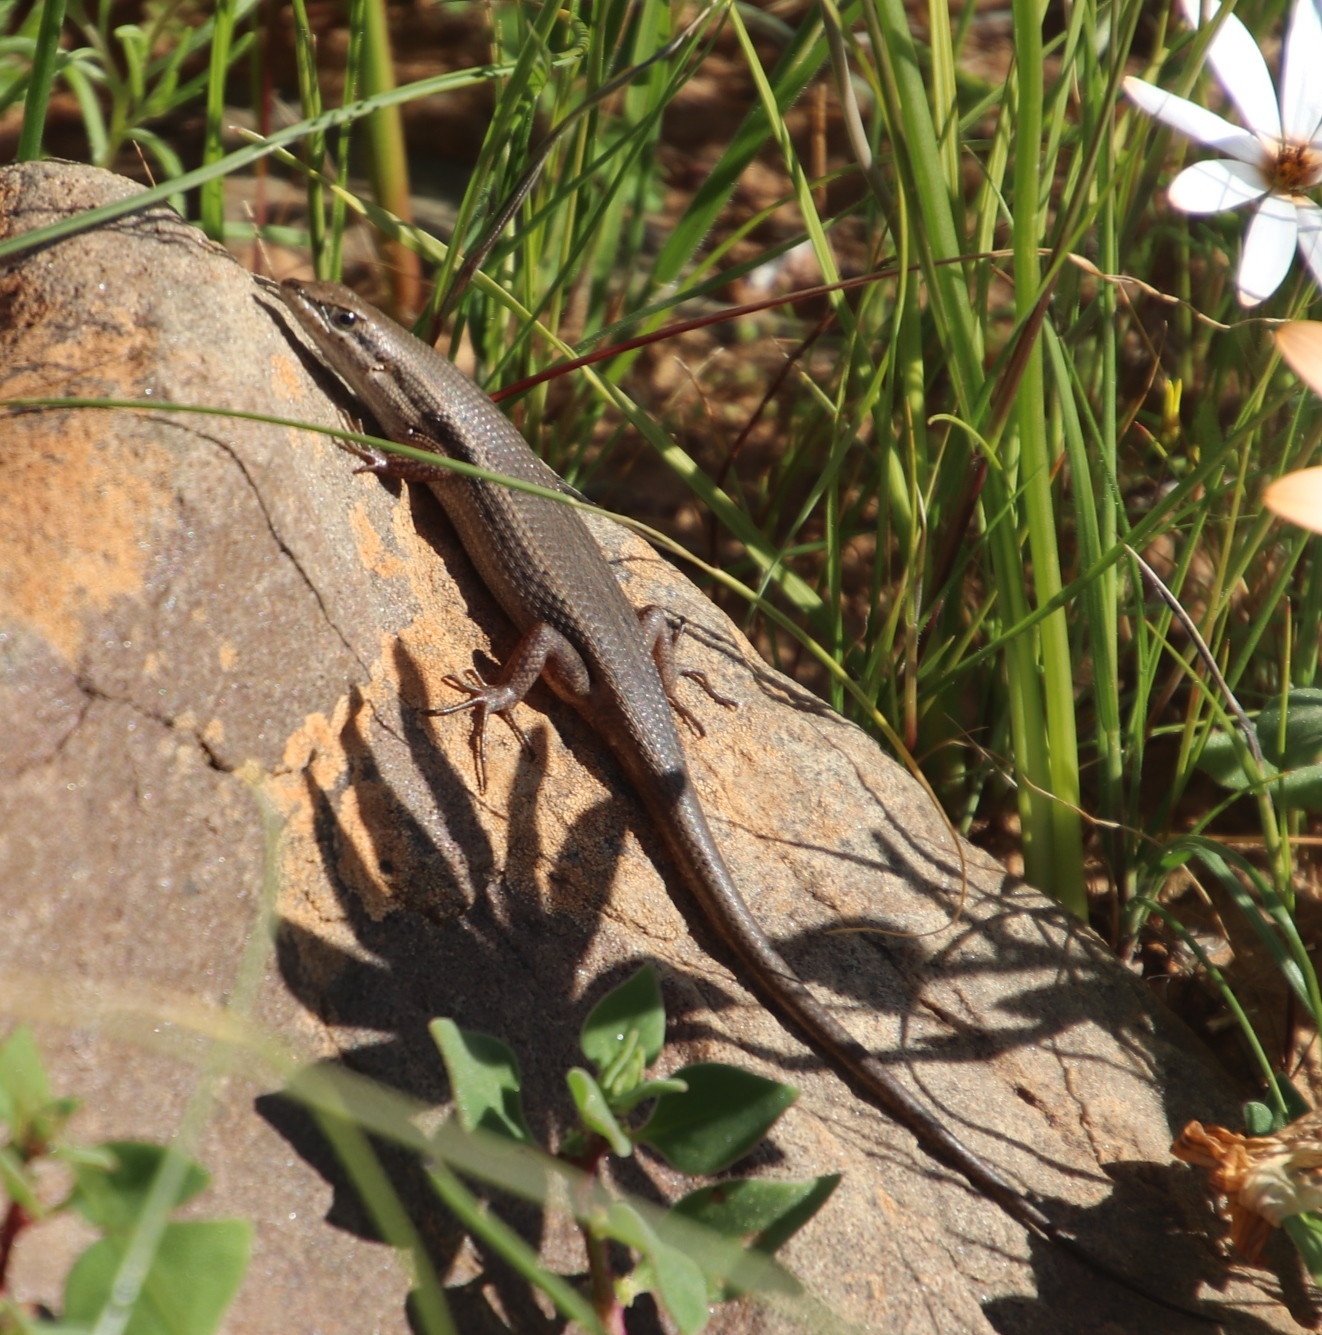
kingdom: Animalia
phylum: Chordata
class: Squamata
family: Scincidae
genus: Trachylepis
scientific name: Trachylepis variegata
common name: Variegated skink
